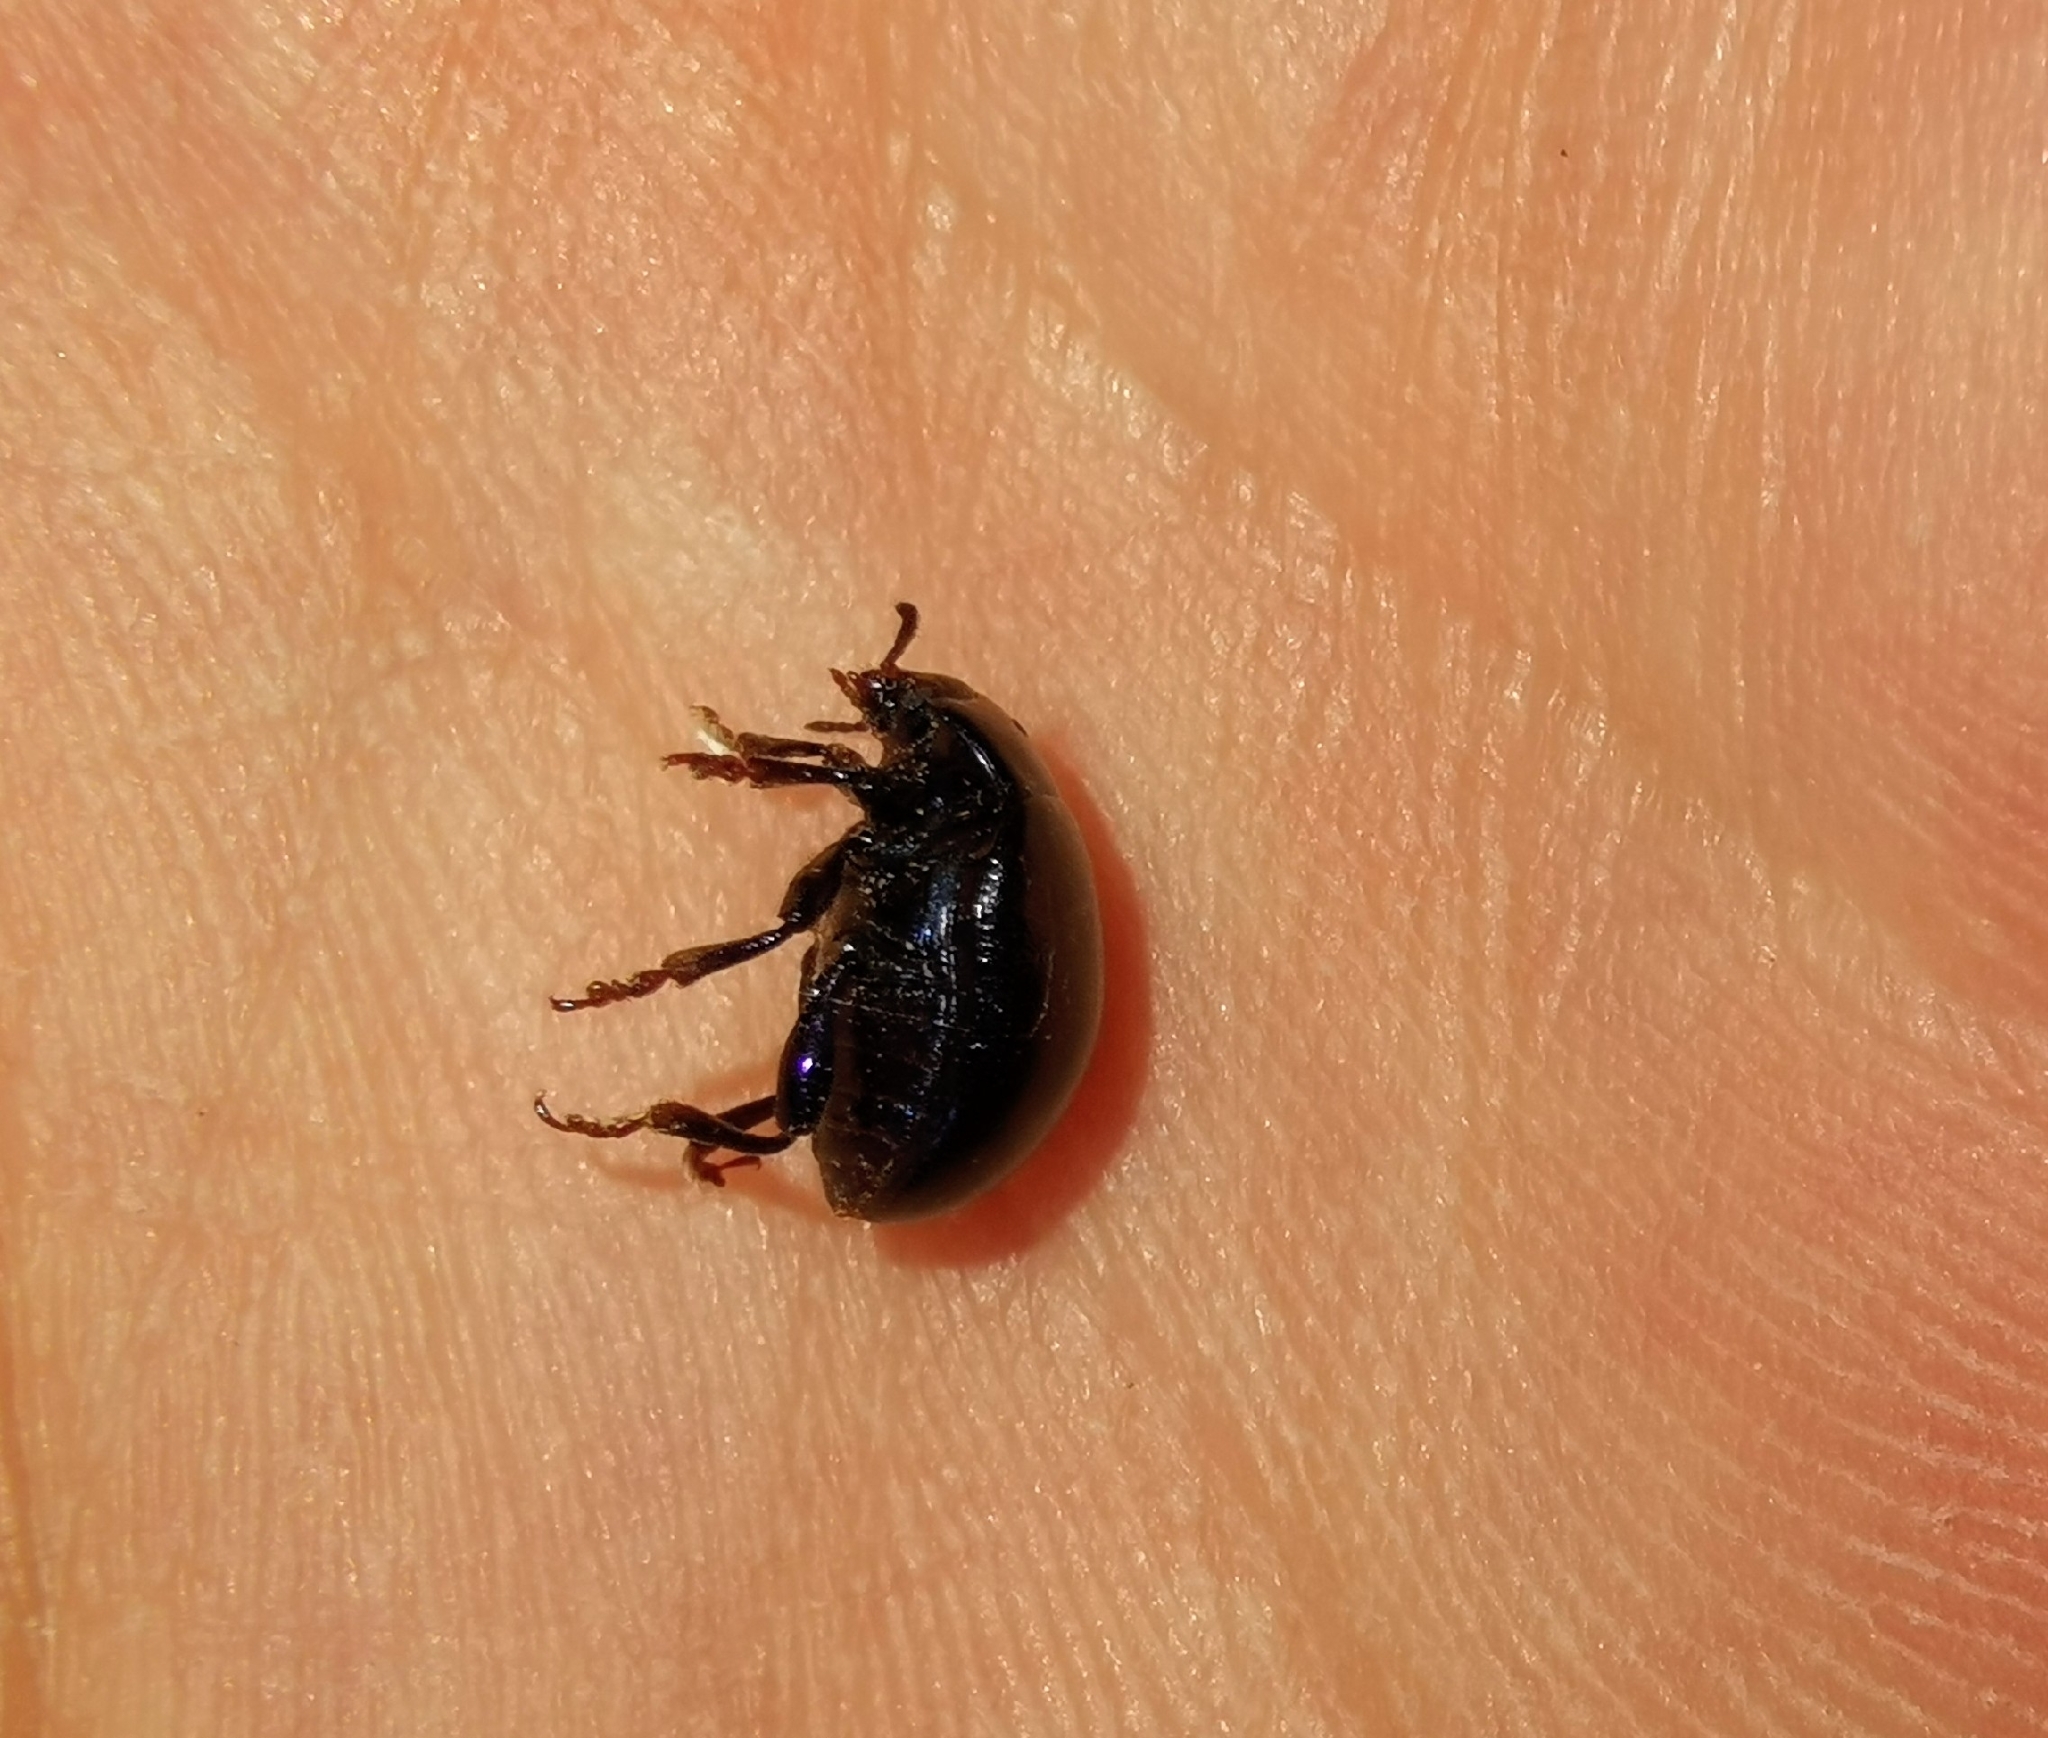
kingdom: Animalia
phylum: Arthropoda
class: Insecta
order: Coleoptera
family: Chrysomelidae
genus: Chrysolina
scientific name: Chrysolina sturmi
